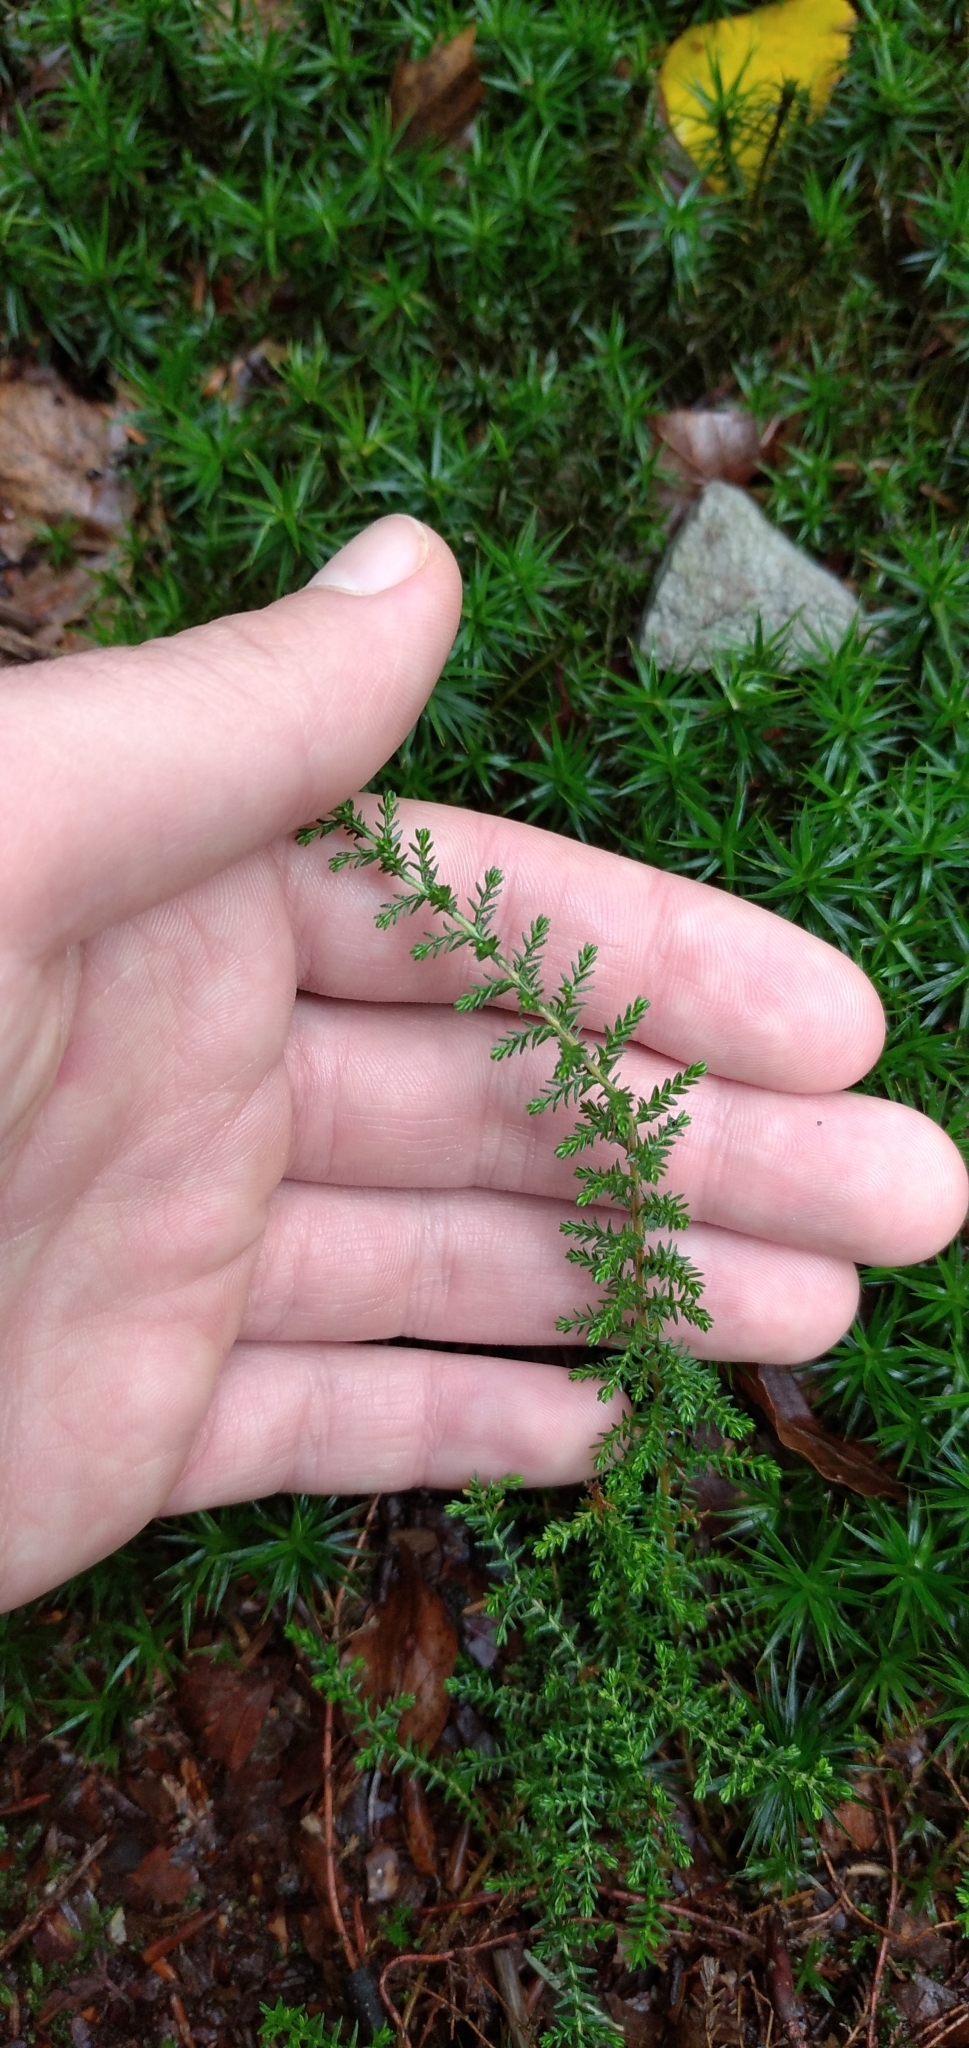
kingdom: Plantae
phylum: Tracheophyta
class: Magnoliopsida
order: Ericales
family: Ericaceae
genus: Calluna
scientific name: Calluna vulgaris
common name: Heather
